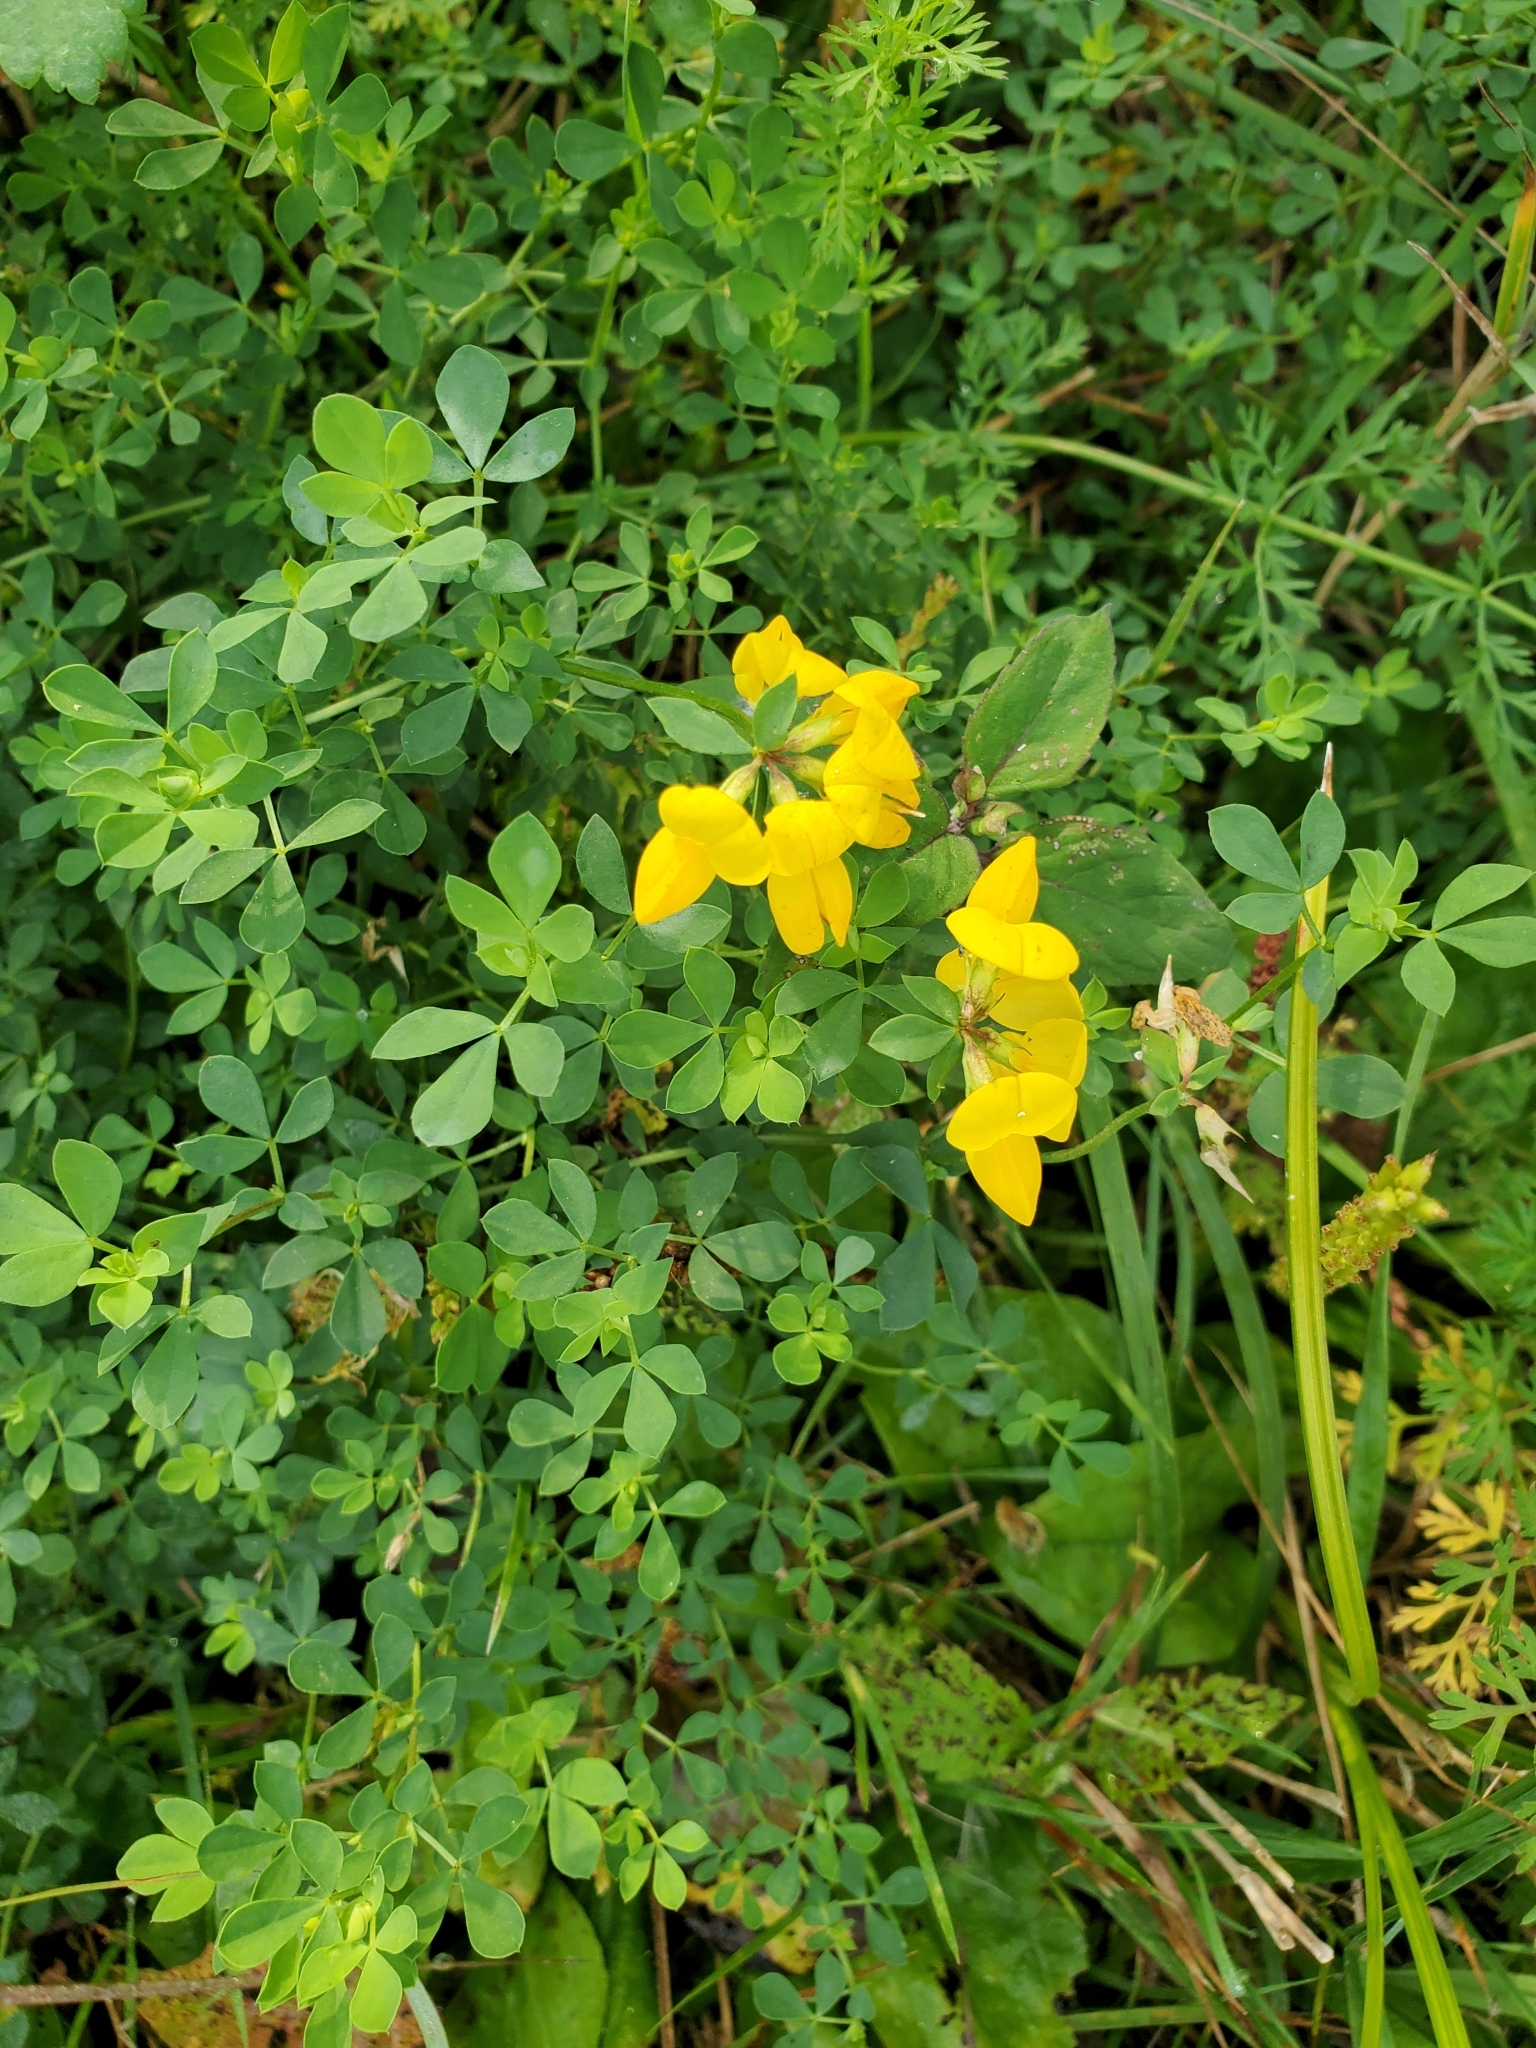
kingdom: Plantae
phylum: Tracheophyta
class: Magnoliopsida
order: Fabales
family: Fabaceae
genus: Lotus
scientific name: Lotus corniculatus
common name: Common bird's-foot-trefoil
